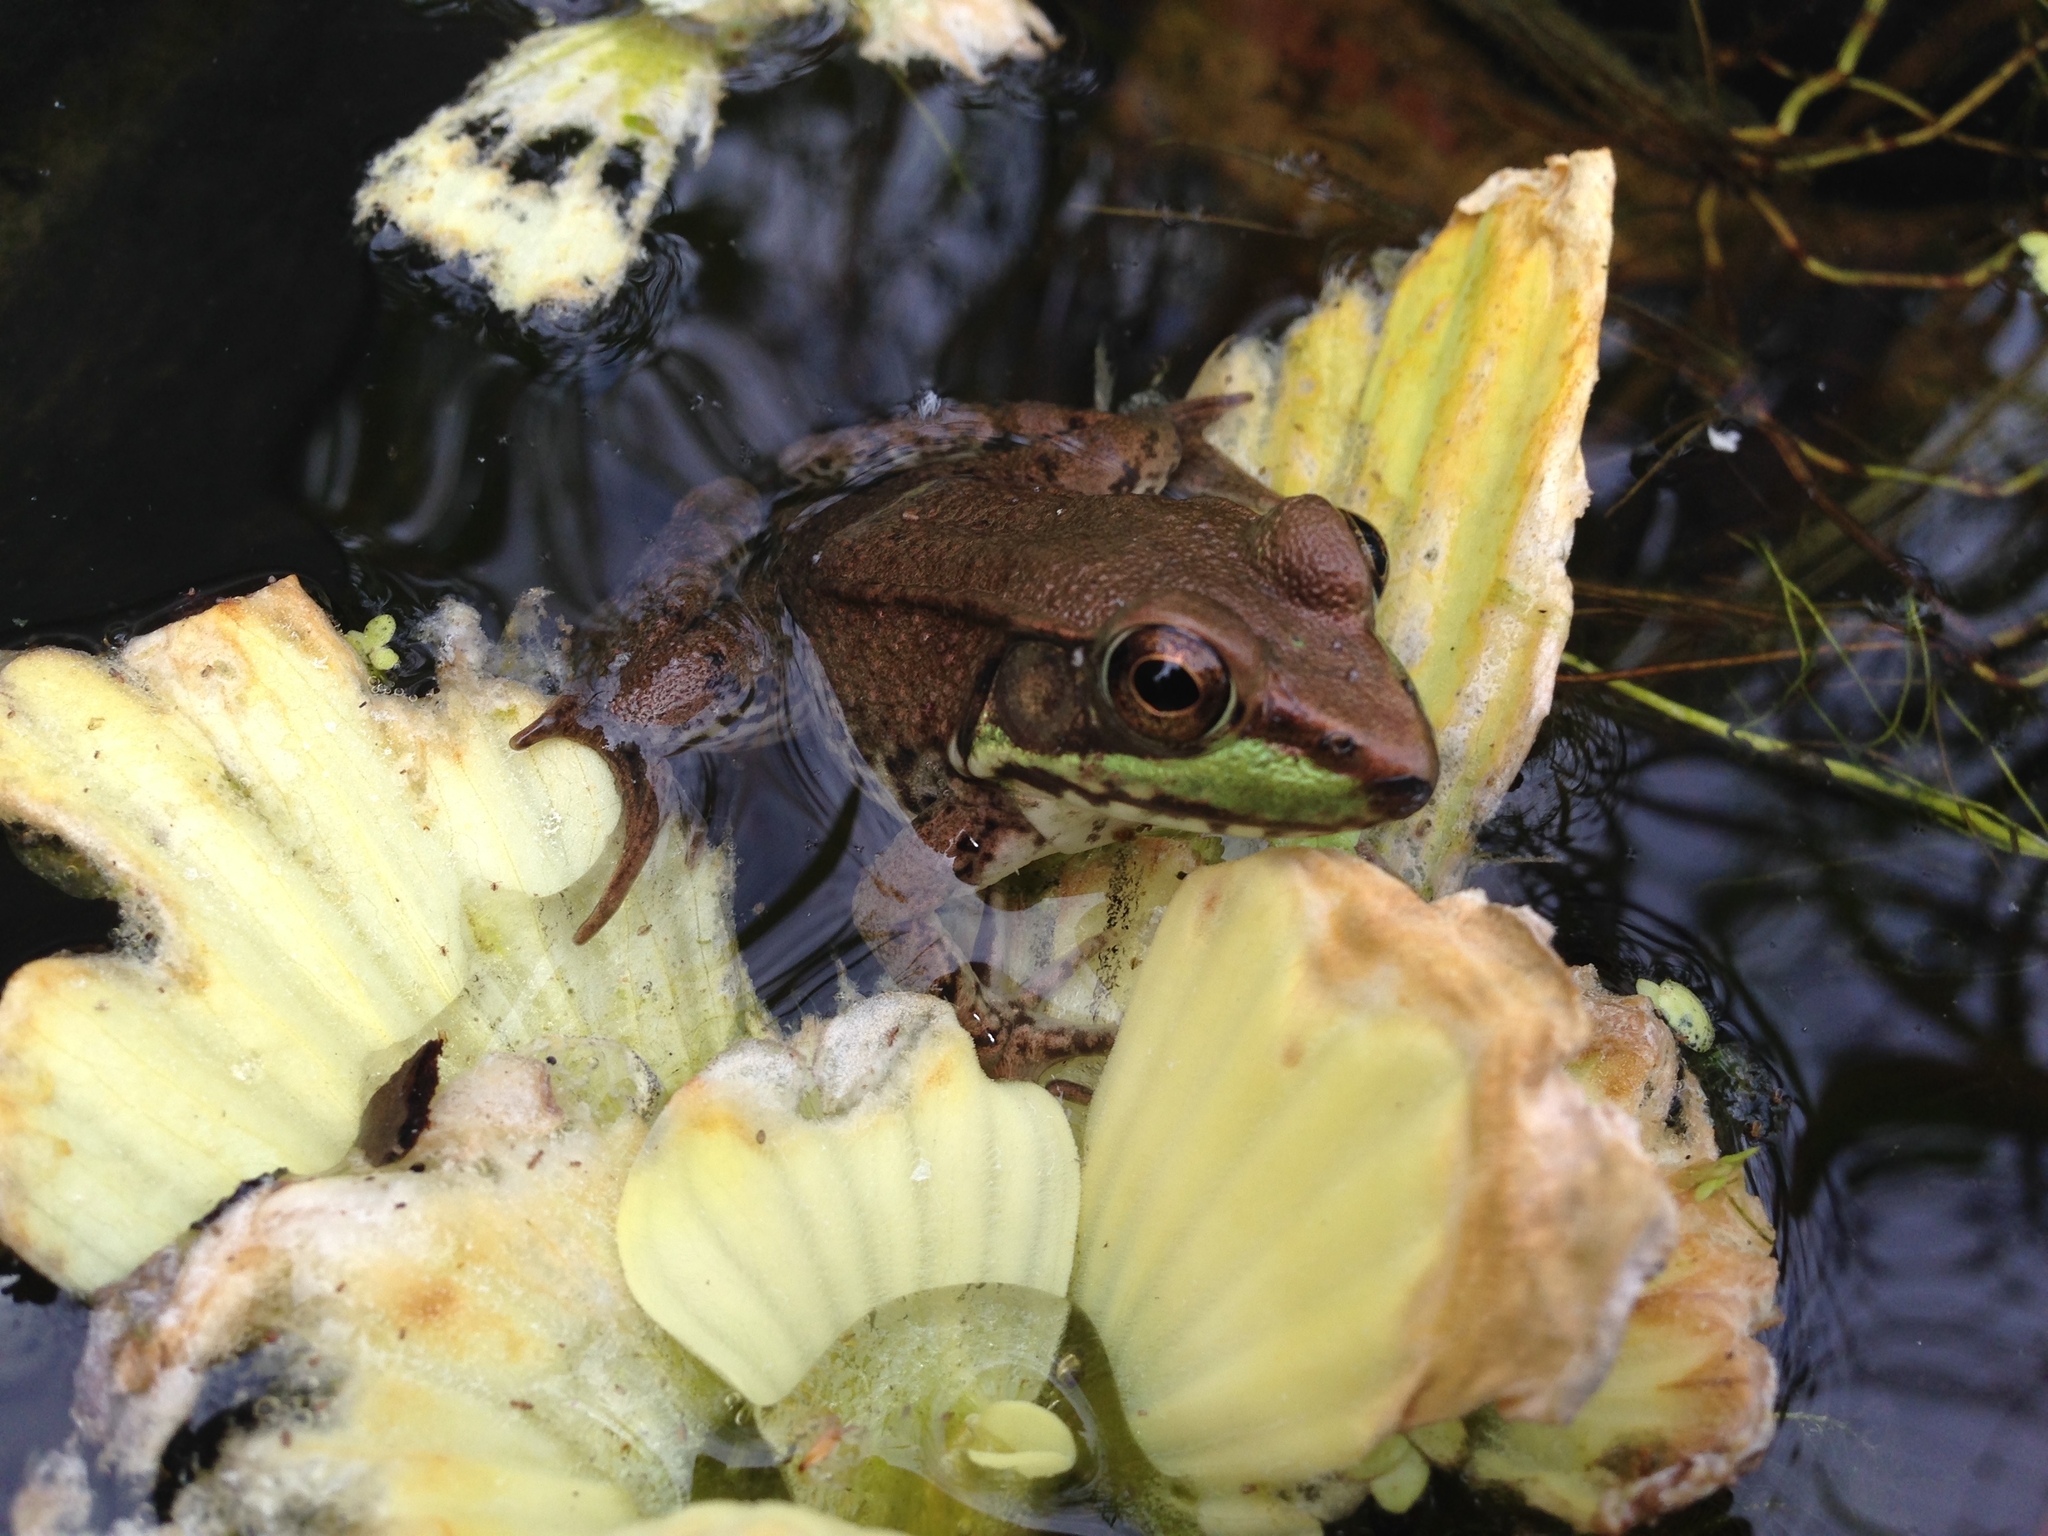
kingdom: Animalia
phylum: Chordata
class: Amphibia
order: Anura
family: Ranidae
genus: Lithobates
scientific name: Lithobates clamitans
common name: Green frog
